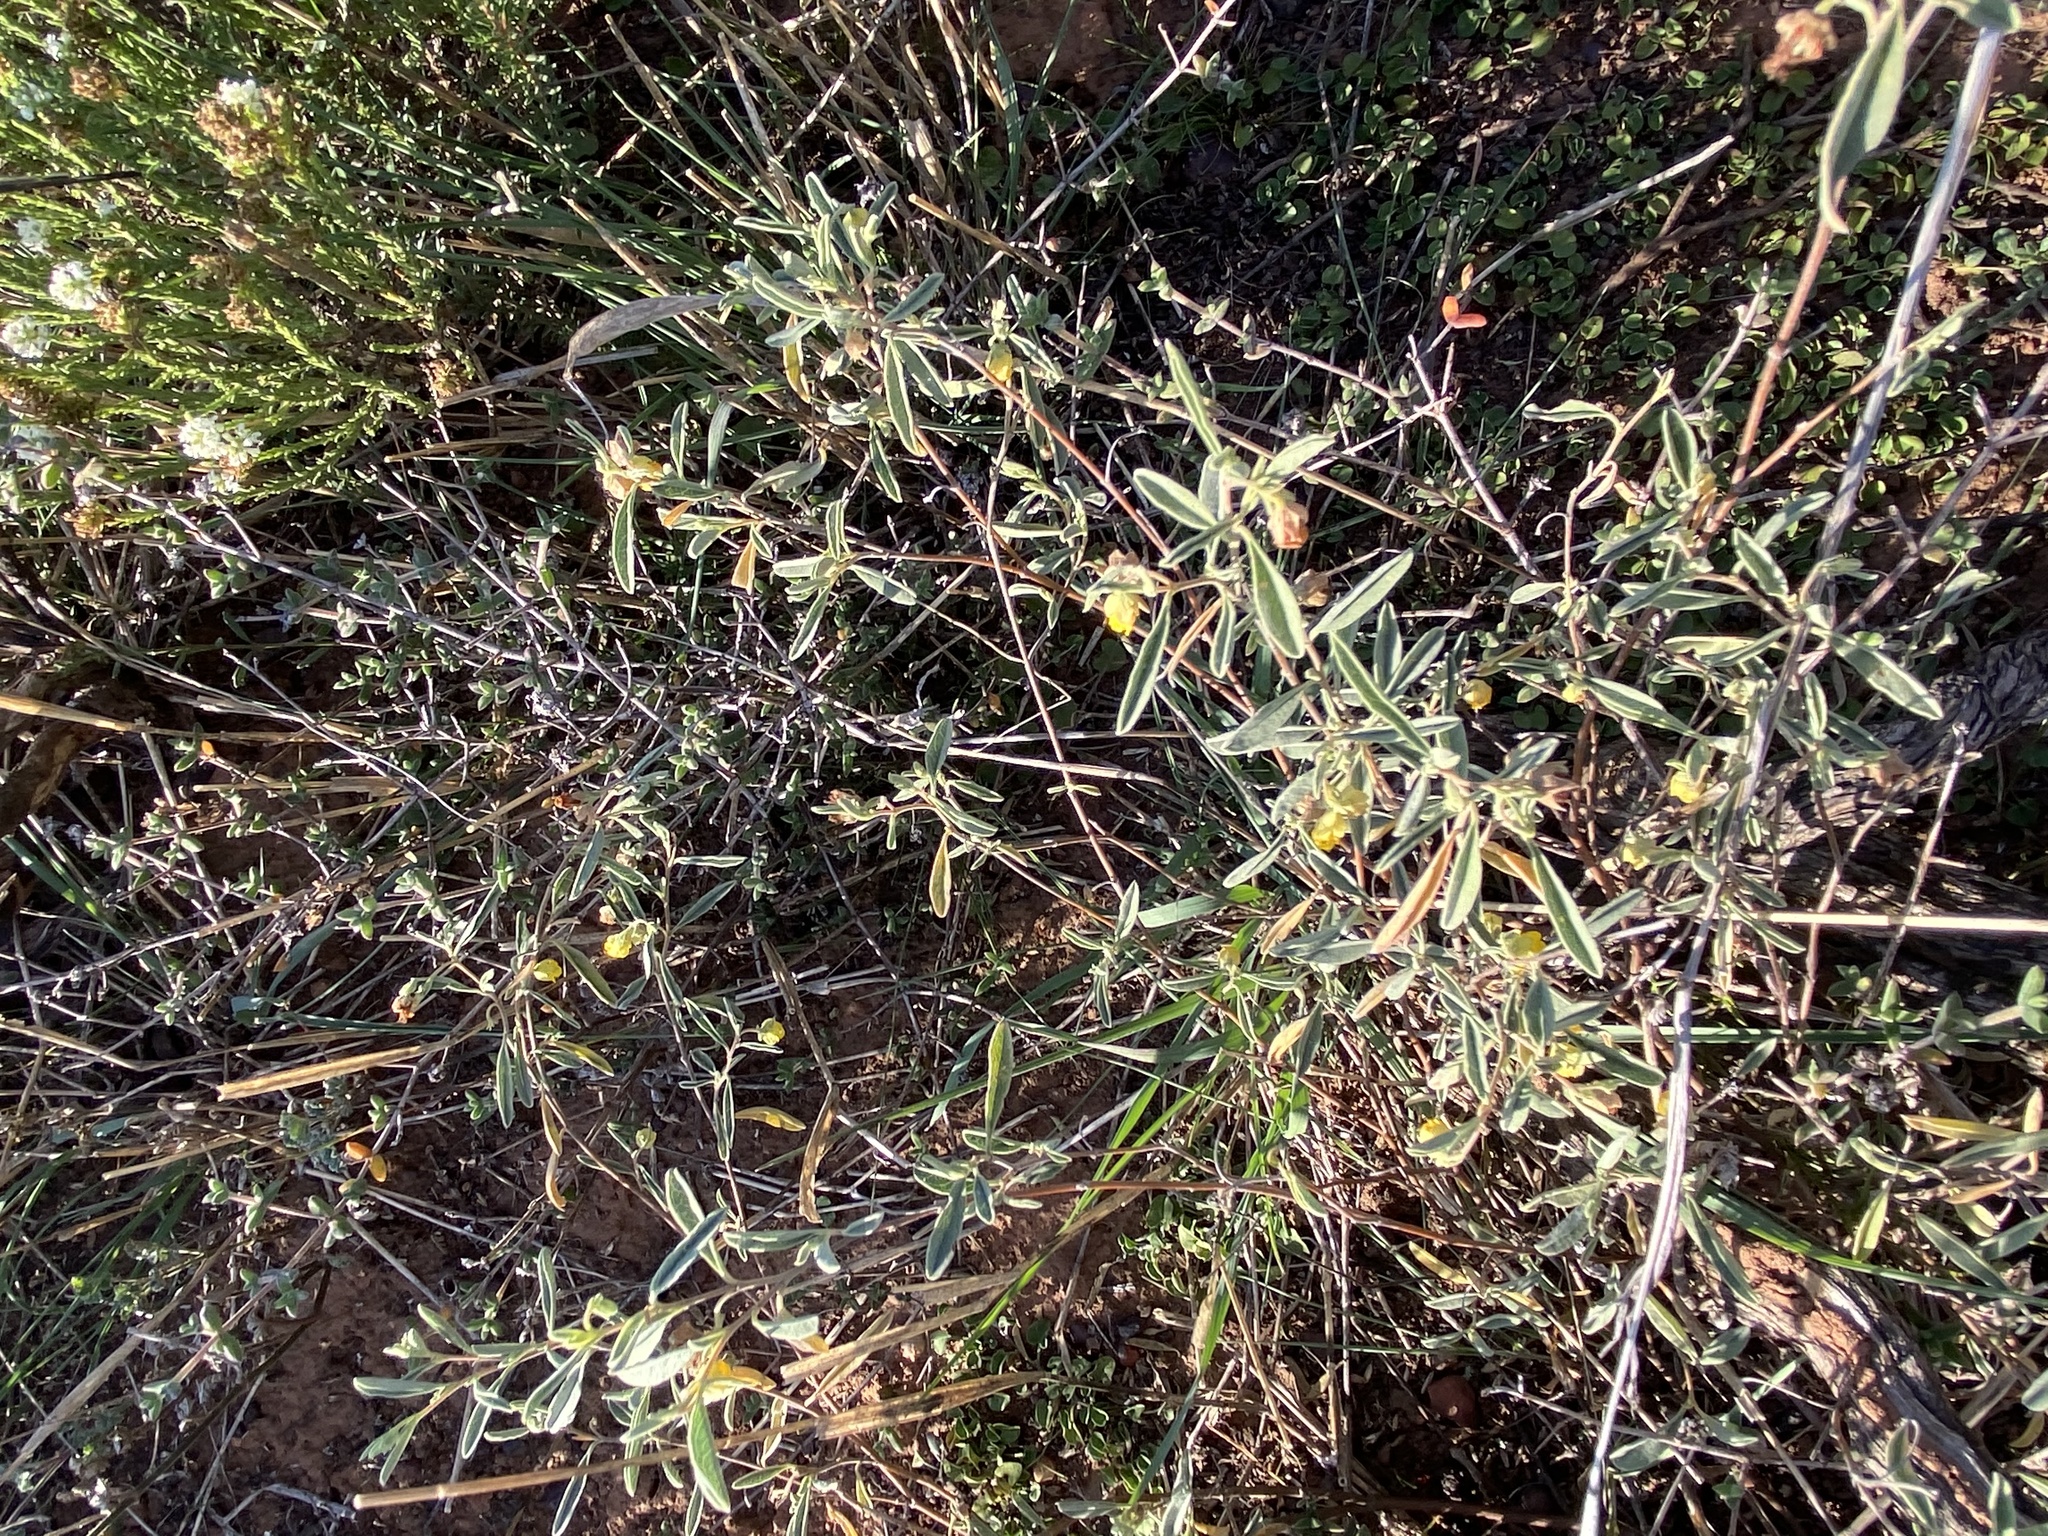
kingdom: Plantae
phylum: Tracheophyta
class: Magnoliopsida
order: Malvales
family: Malvaceae
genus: Hermannia
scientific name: Hermannia lavandulifolia
